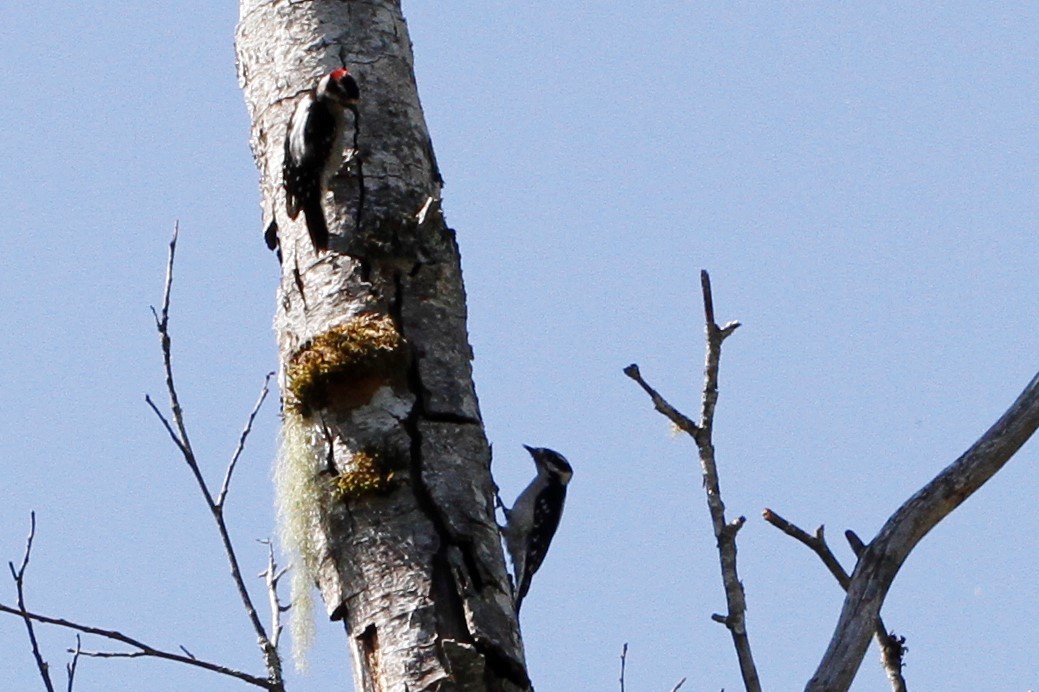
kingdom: Animalia
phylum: Chordata
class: Aves
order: Piciformes
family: Picidae
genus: Dryobates
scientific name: Dryobates pubescens
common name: Downy woodpecker
